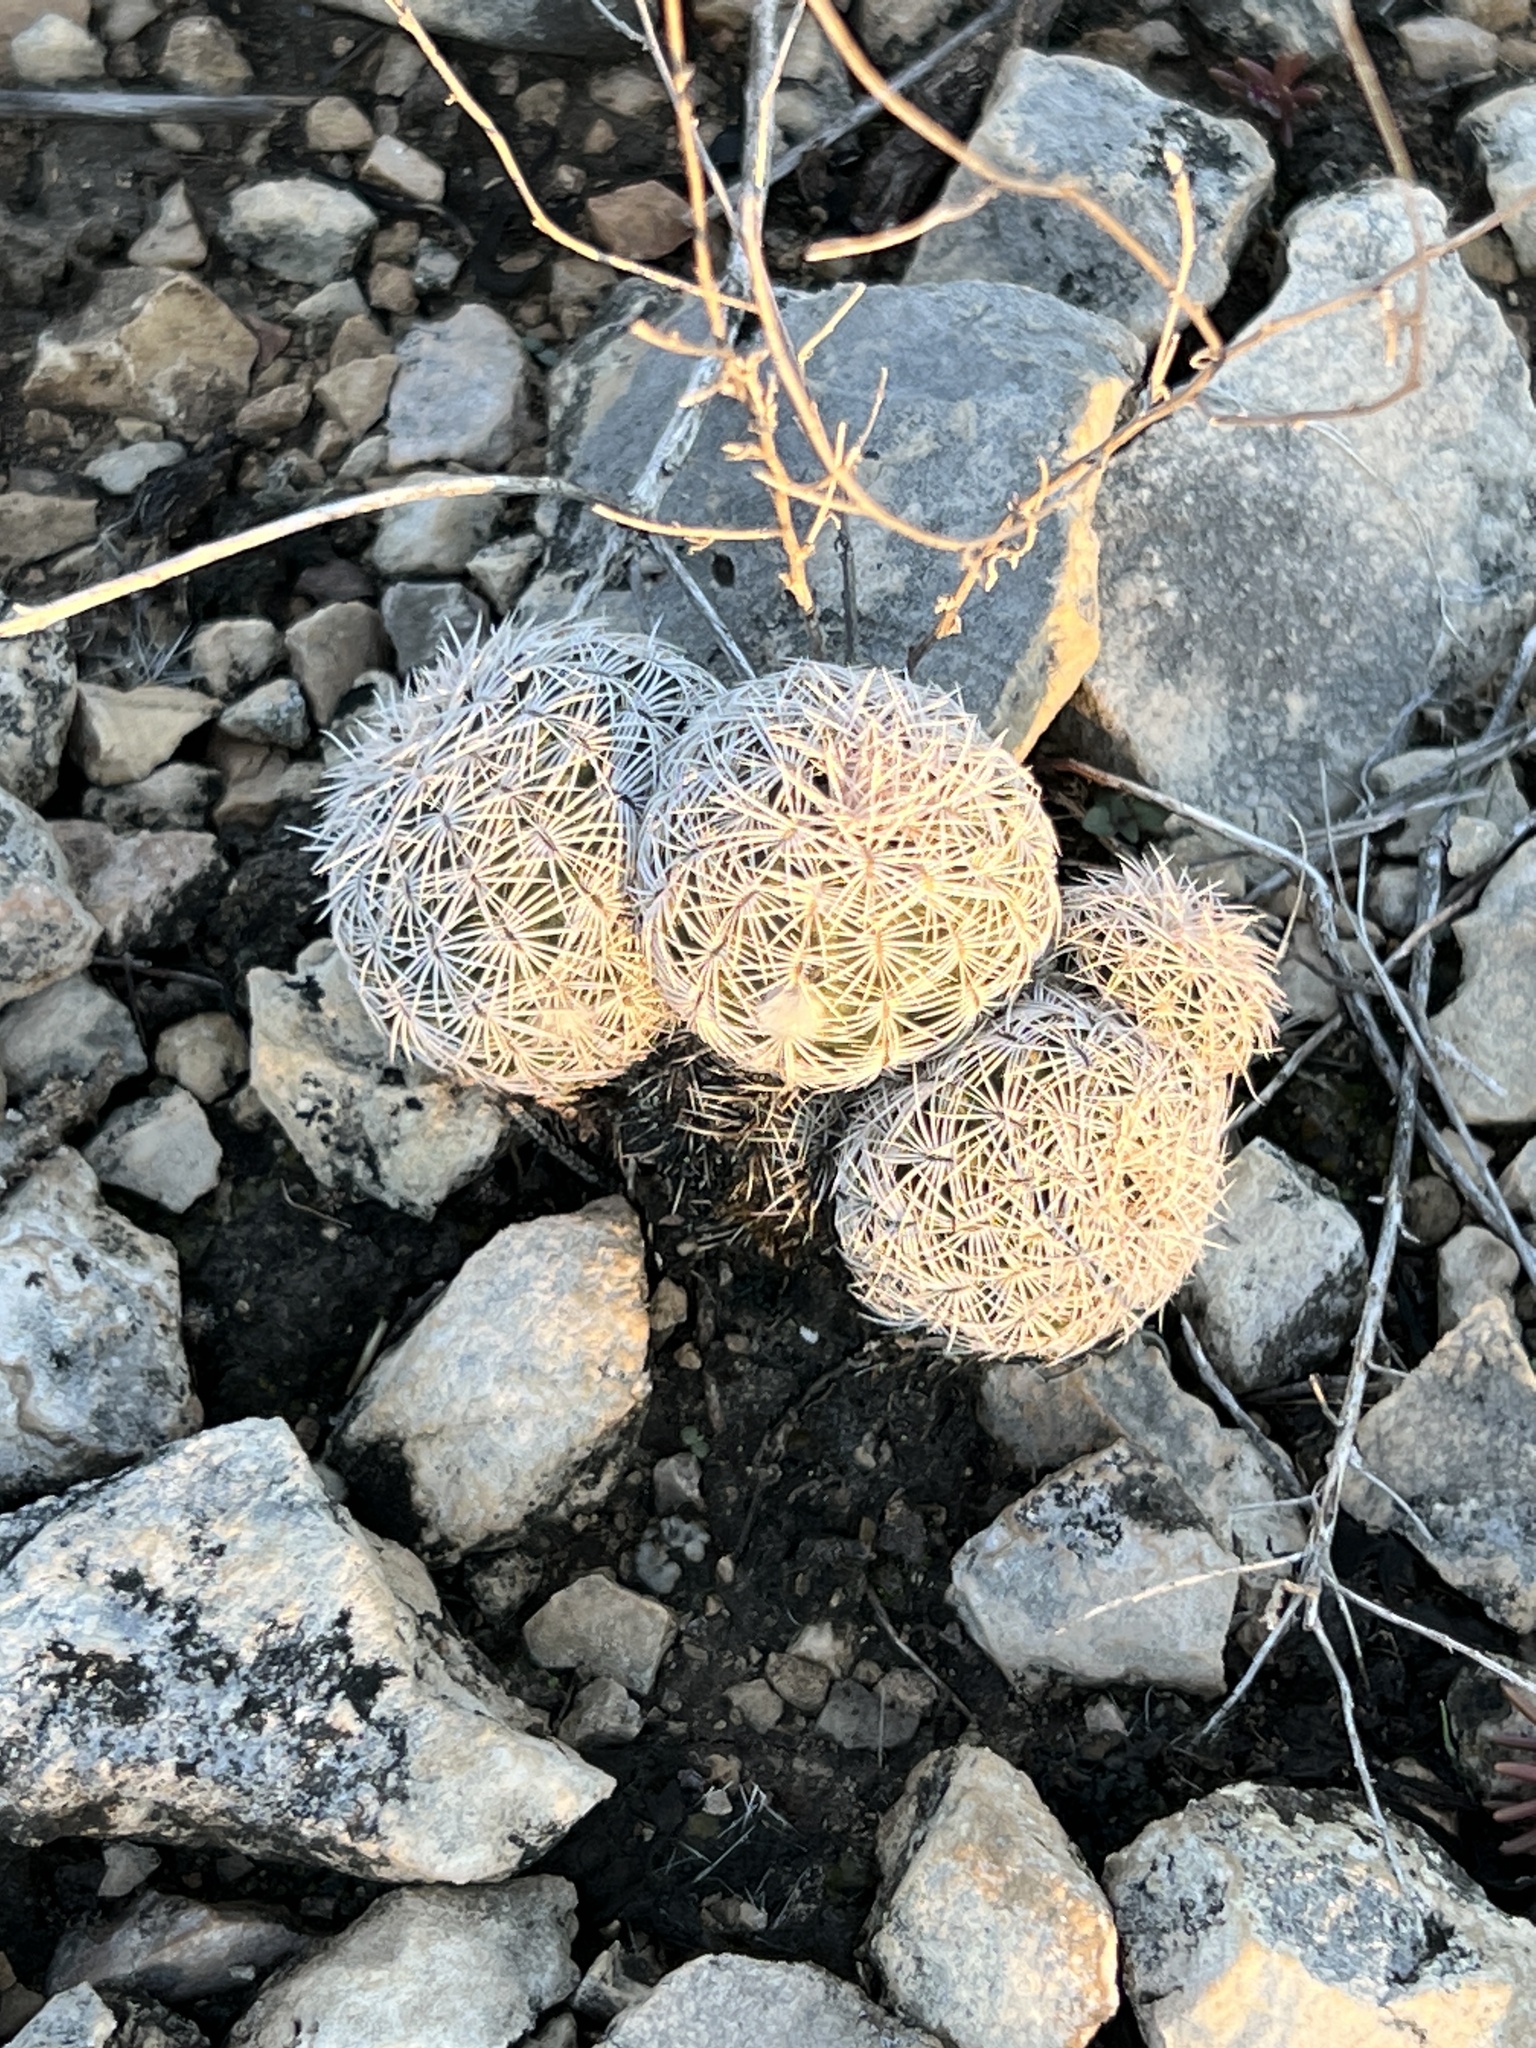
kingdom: Plantae
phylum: Tracheophyta
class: Magnoliopsida
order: Caryophyllales
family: Cactaceae
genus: Echinocereus
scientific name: Echinocereus reichenbachii
